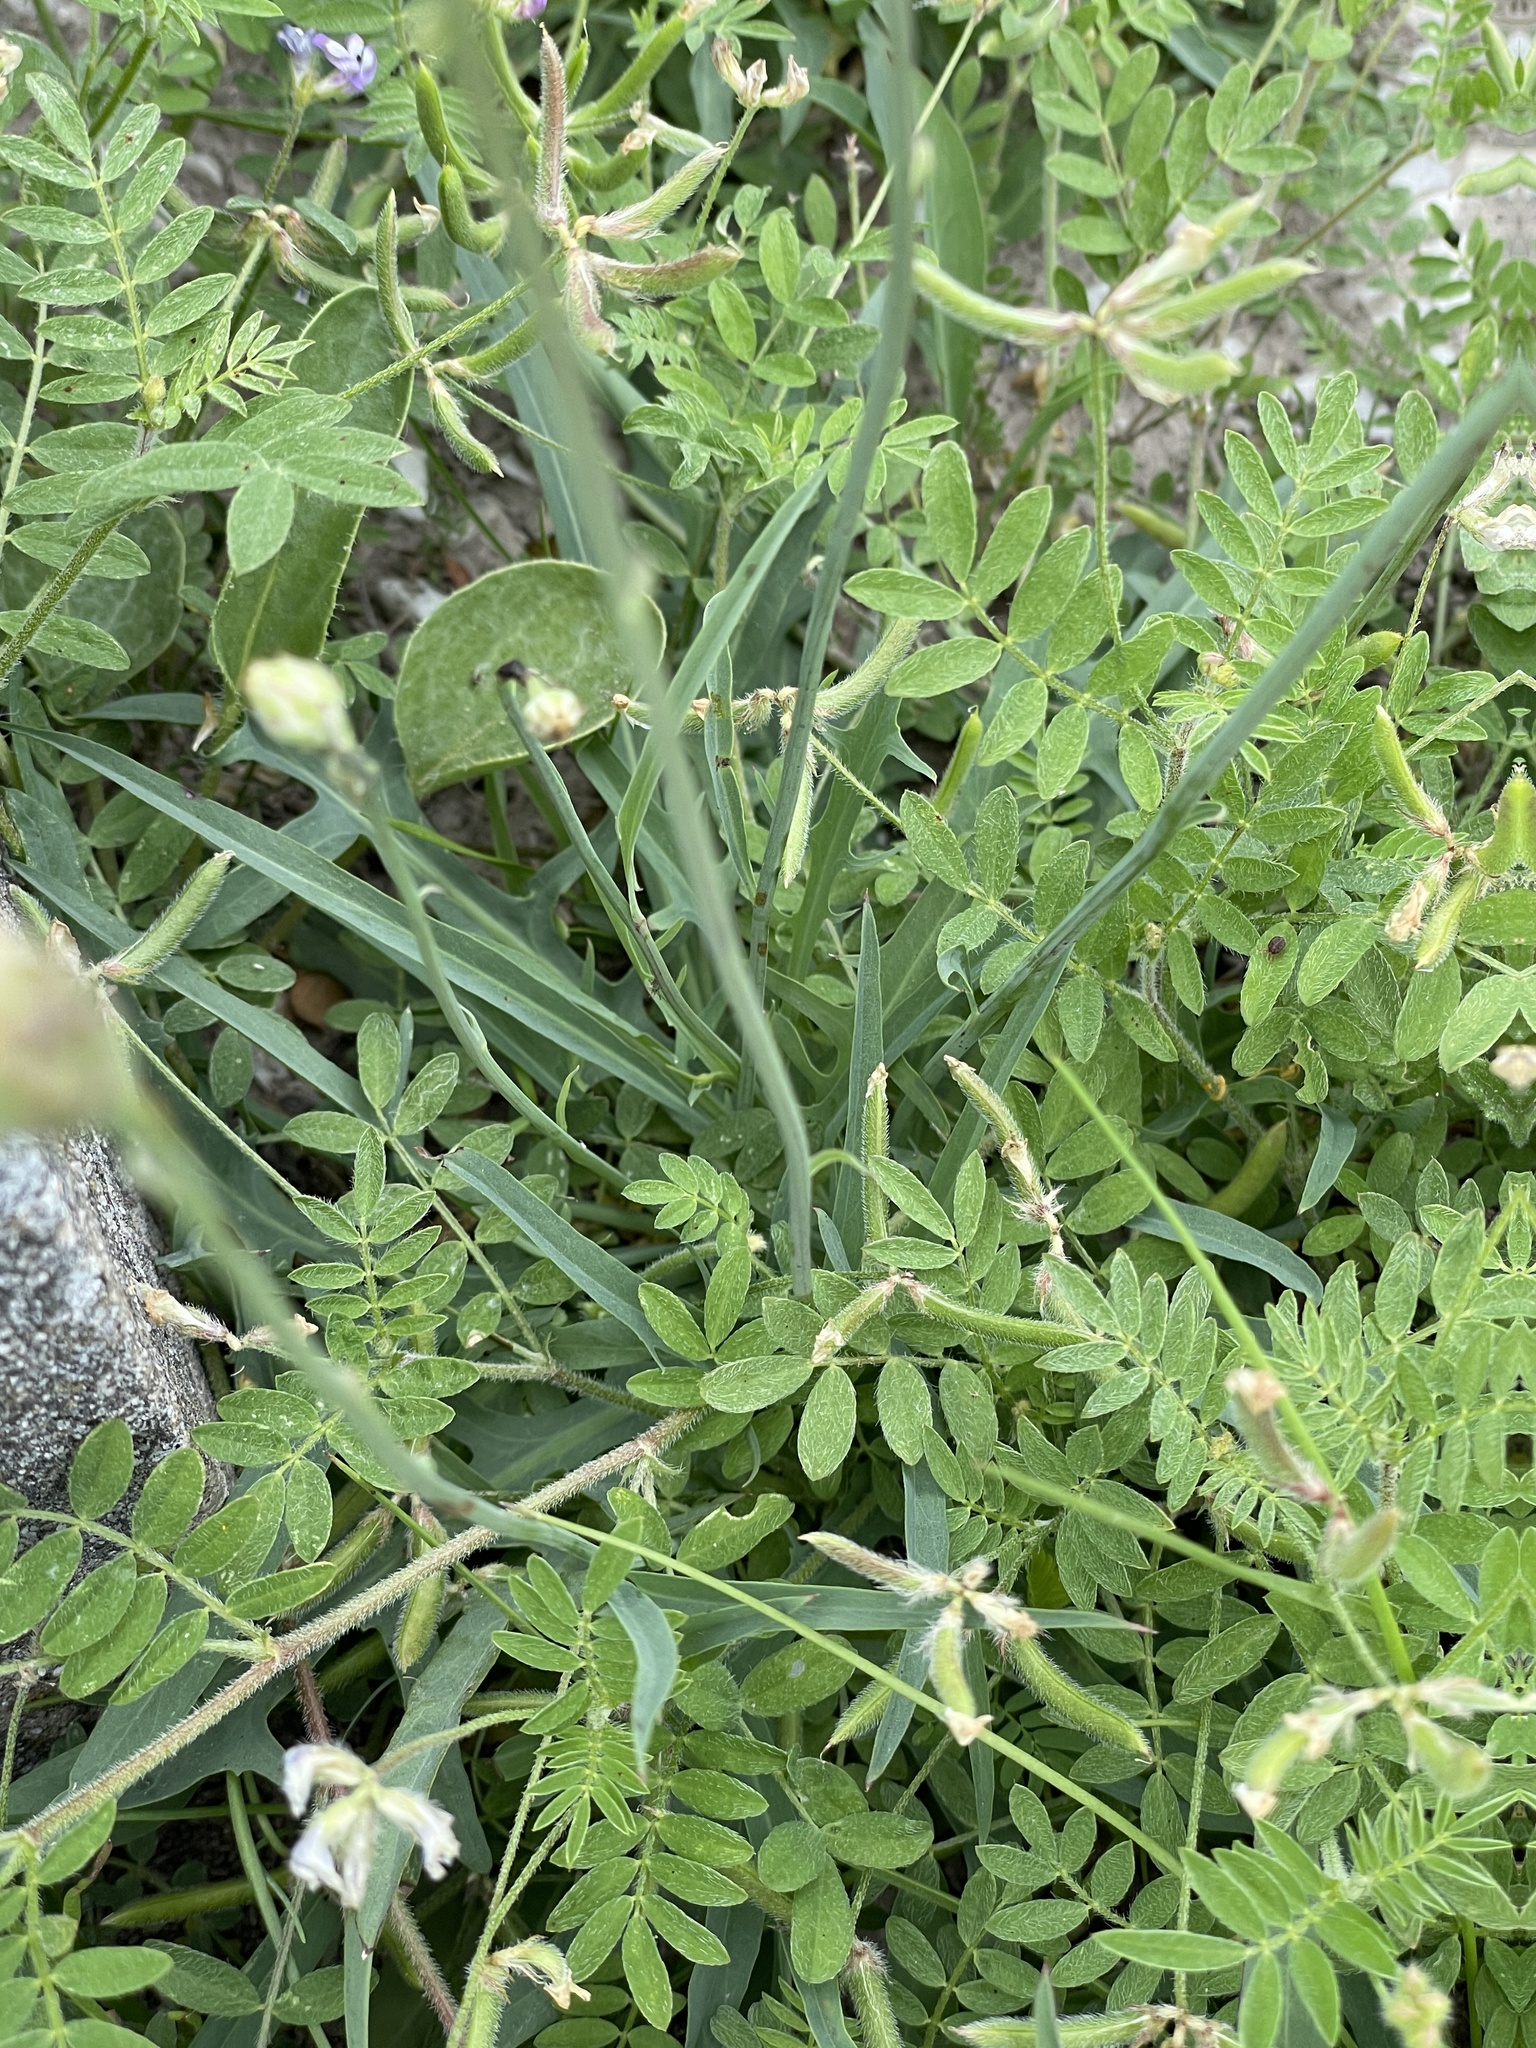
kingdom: Plantae
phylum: Tracheophyta
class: Magnoliopsida
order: Fabales
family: Fabaceae
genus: Astragalus
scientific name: Astragalus nuttallianus
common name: Smallflowered milkvetch
